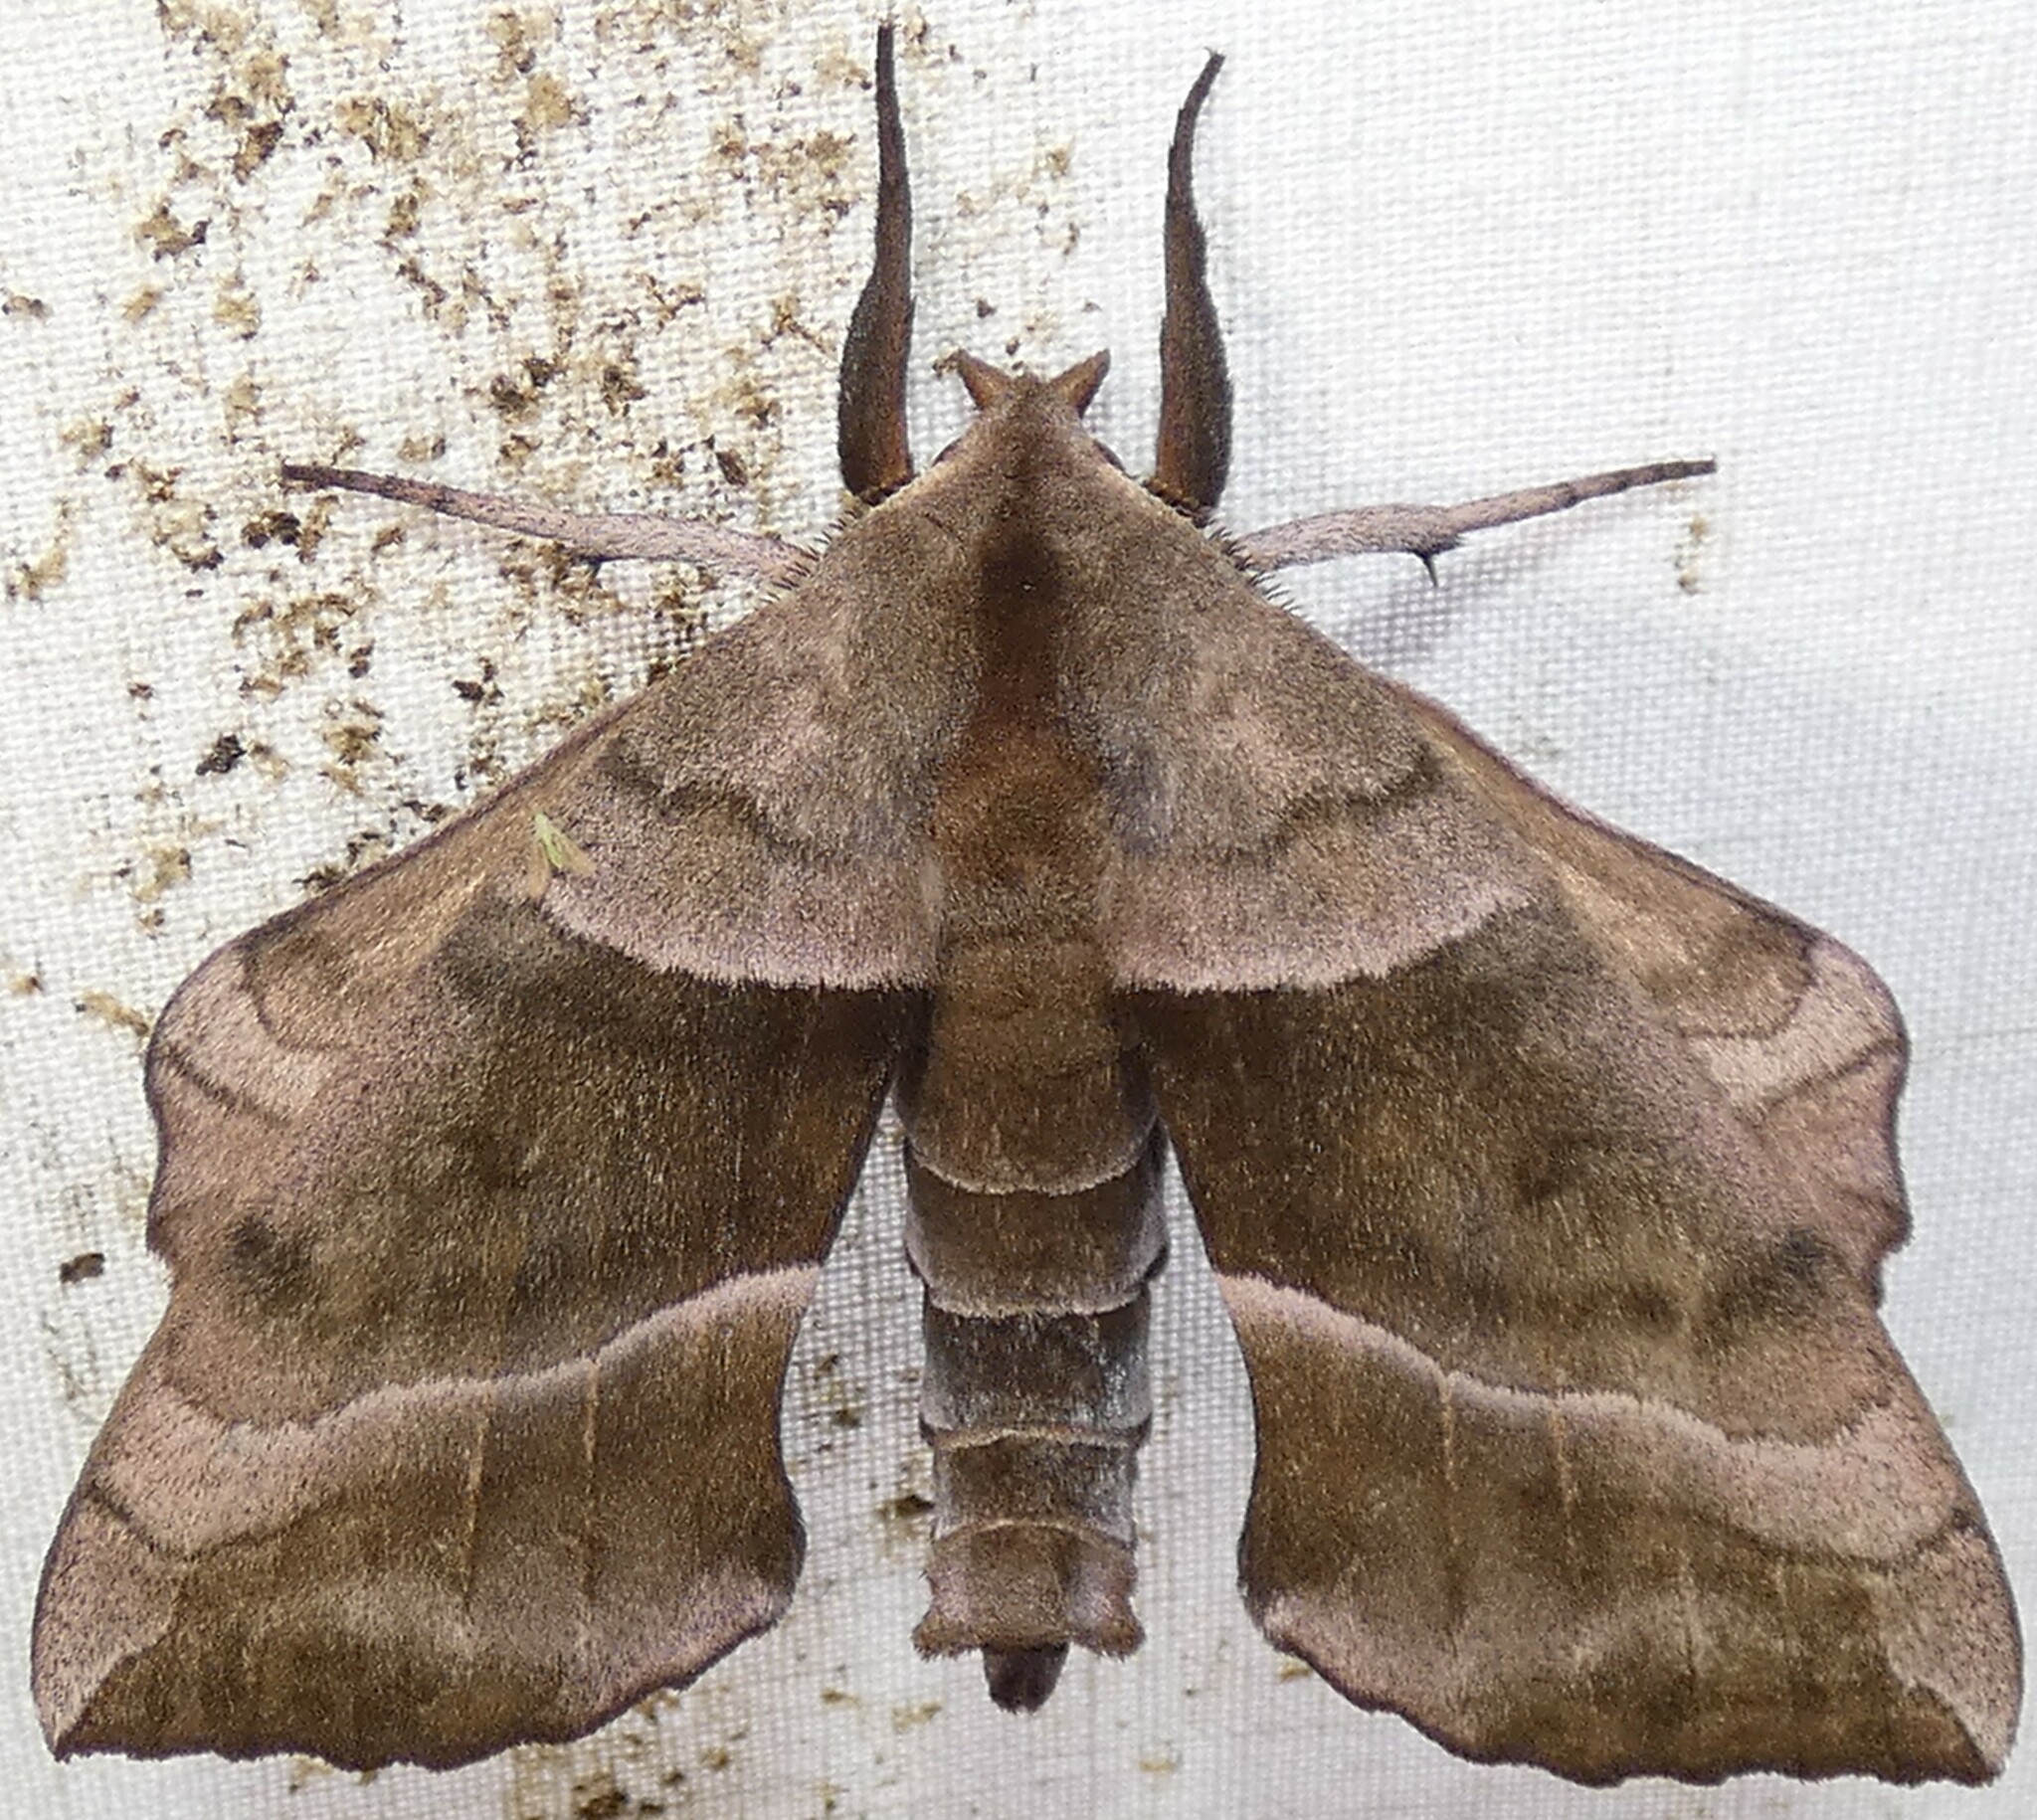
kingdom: Animalia
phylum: Arthropoda
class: Insecta
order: Lepidoptera
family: Sphingidae
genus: Amorpha
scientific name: Amorpha juglandis
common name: Walnut sphinx
